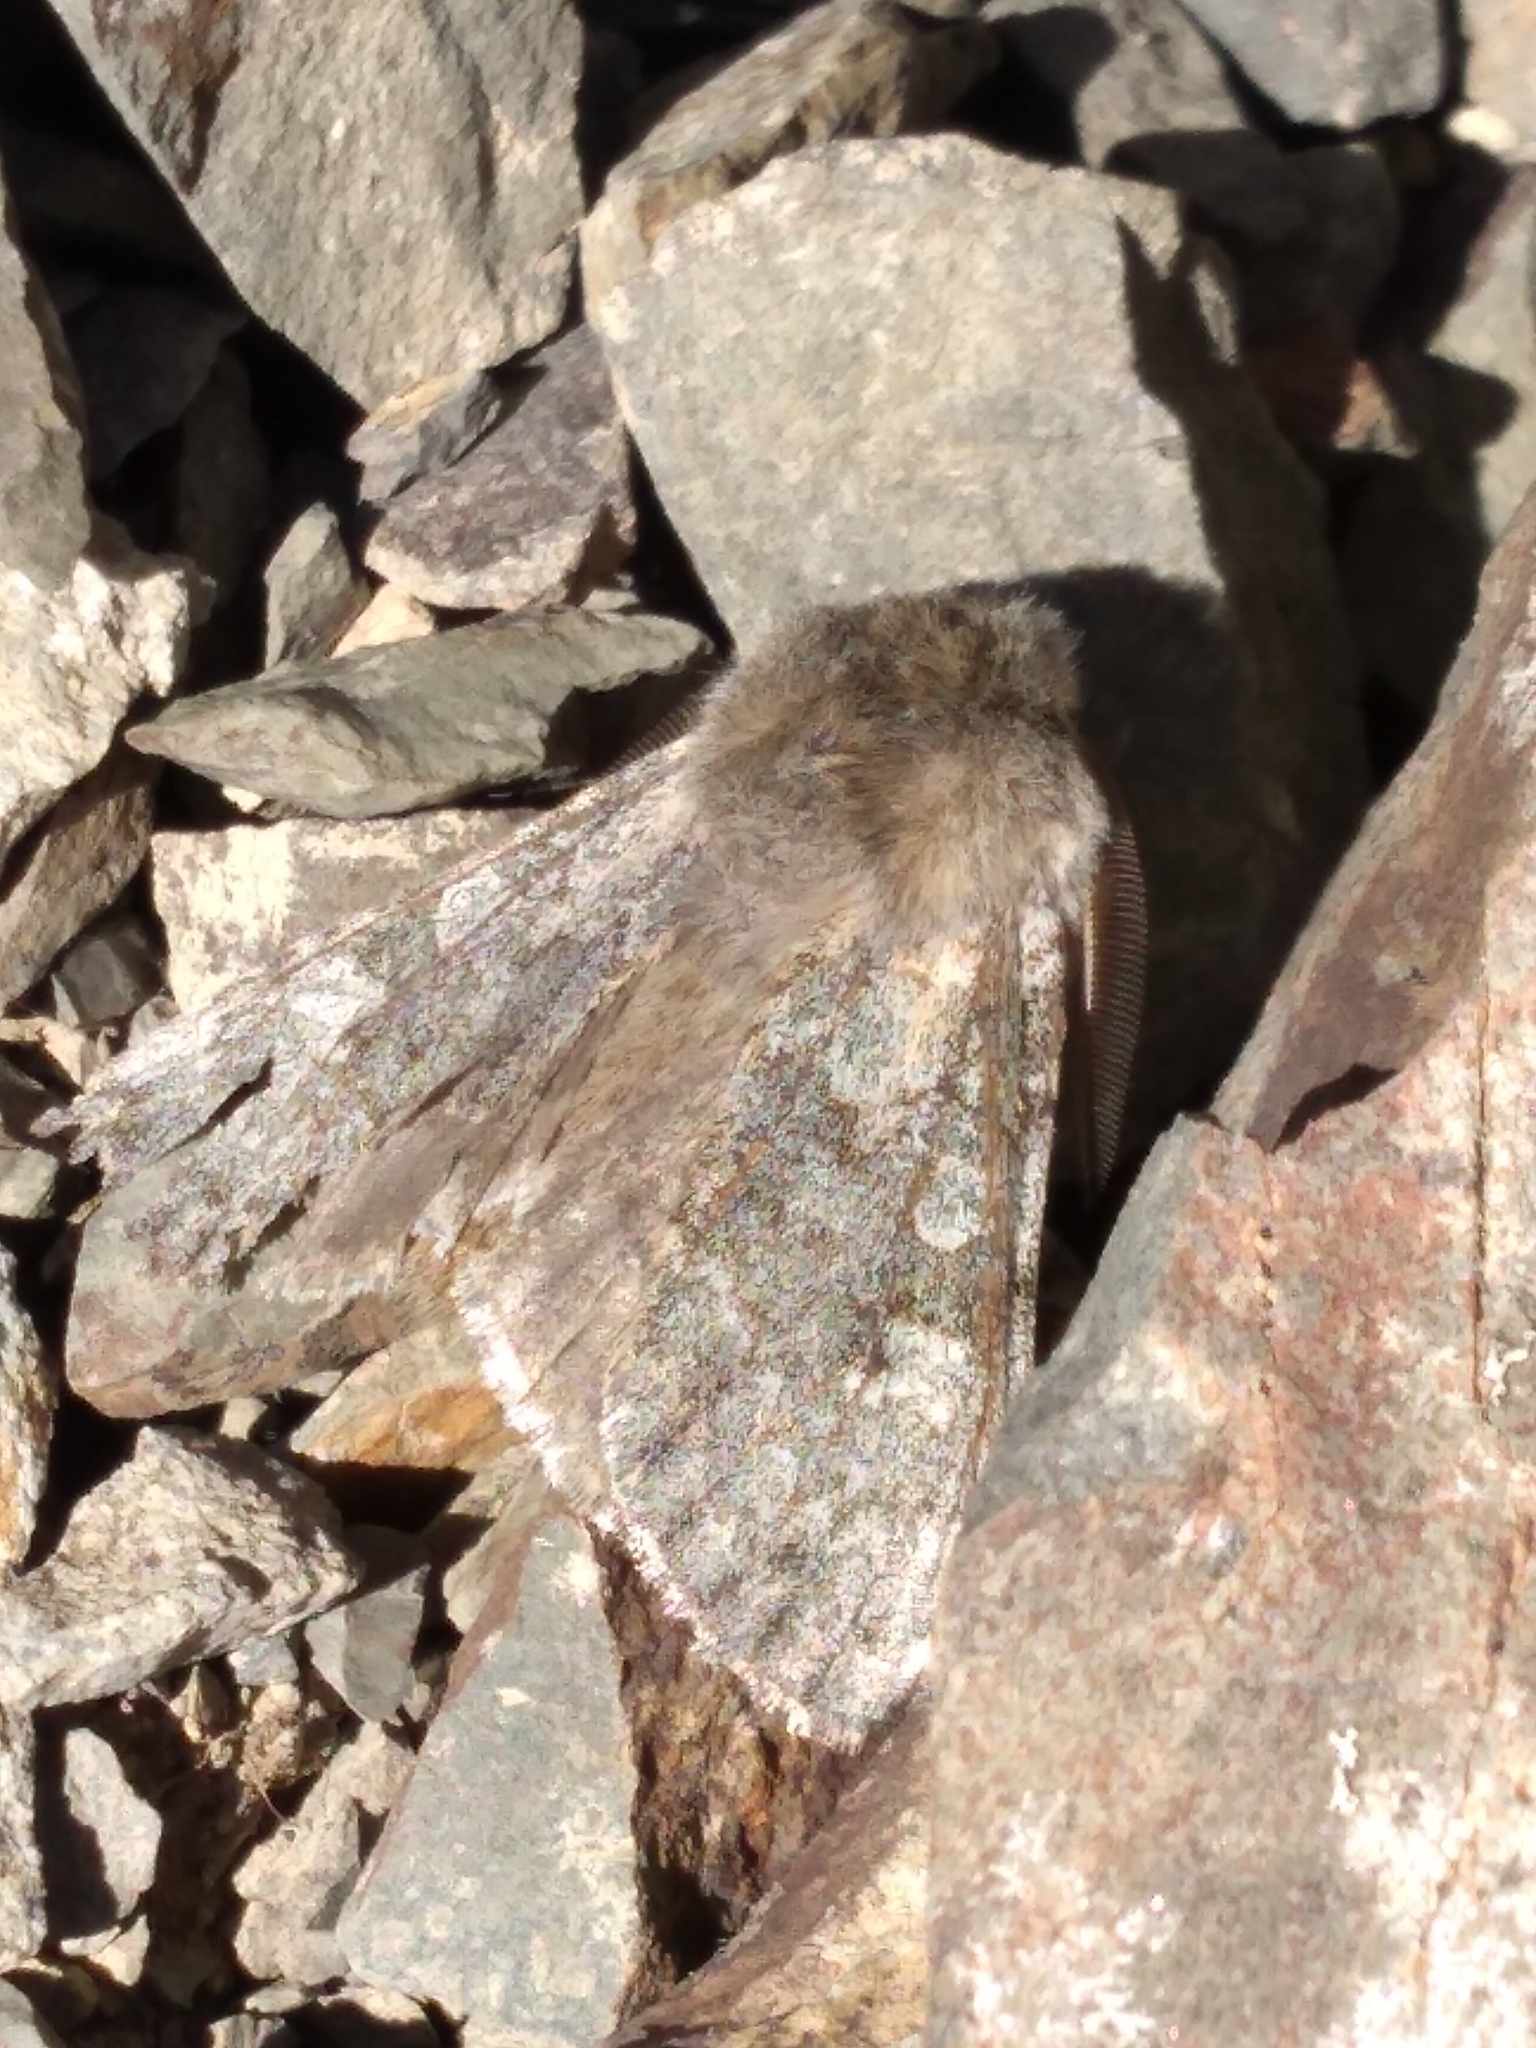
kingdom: Animalia
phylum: Arthropoda
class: Insecta
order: Lepidoptera
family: Noctuidae
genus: Ichneutica
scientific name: Ichneutica cana
